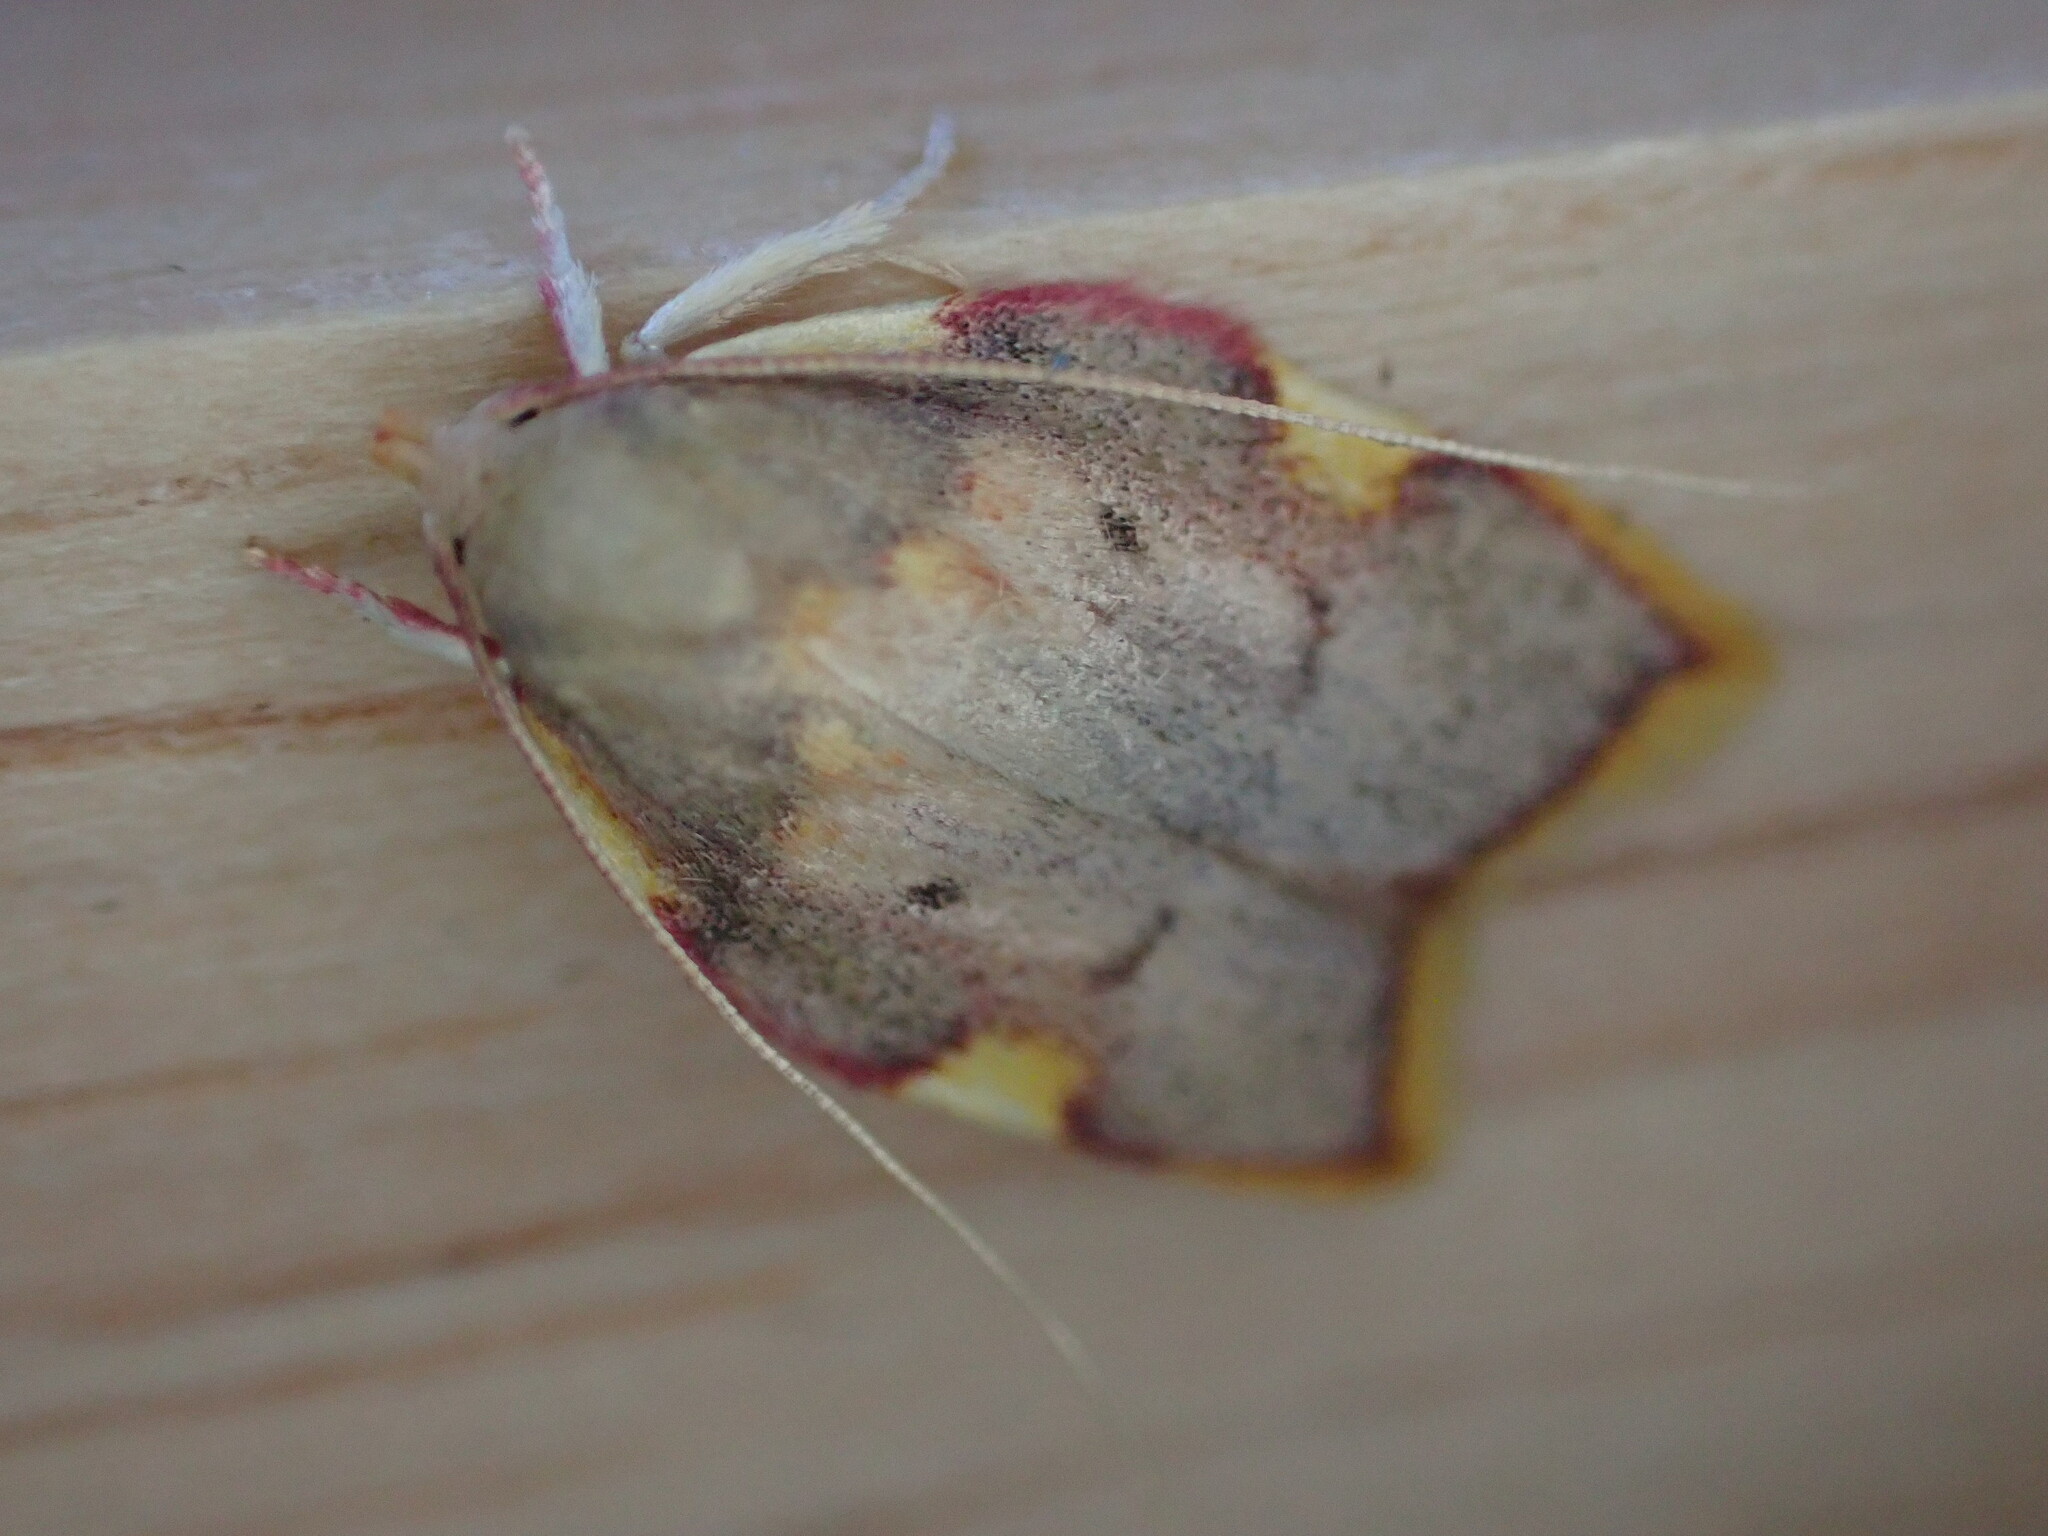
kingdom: Animalia
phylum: Arthropoda
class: Insecta
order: Lepidoptera
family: Peleopodidae
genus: Carcina
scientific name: Carcina quercana
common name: Moth
